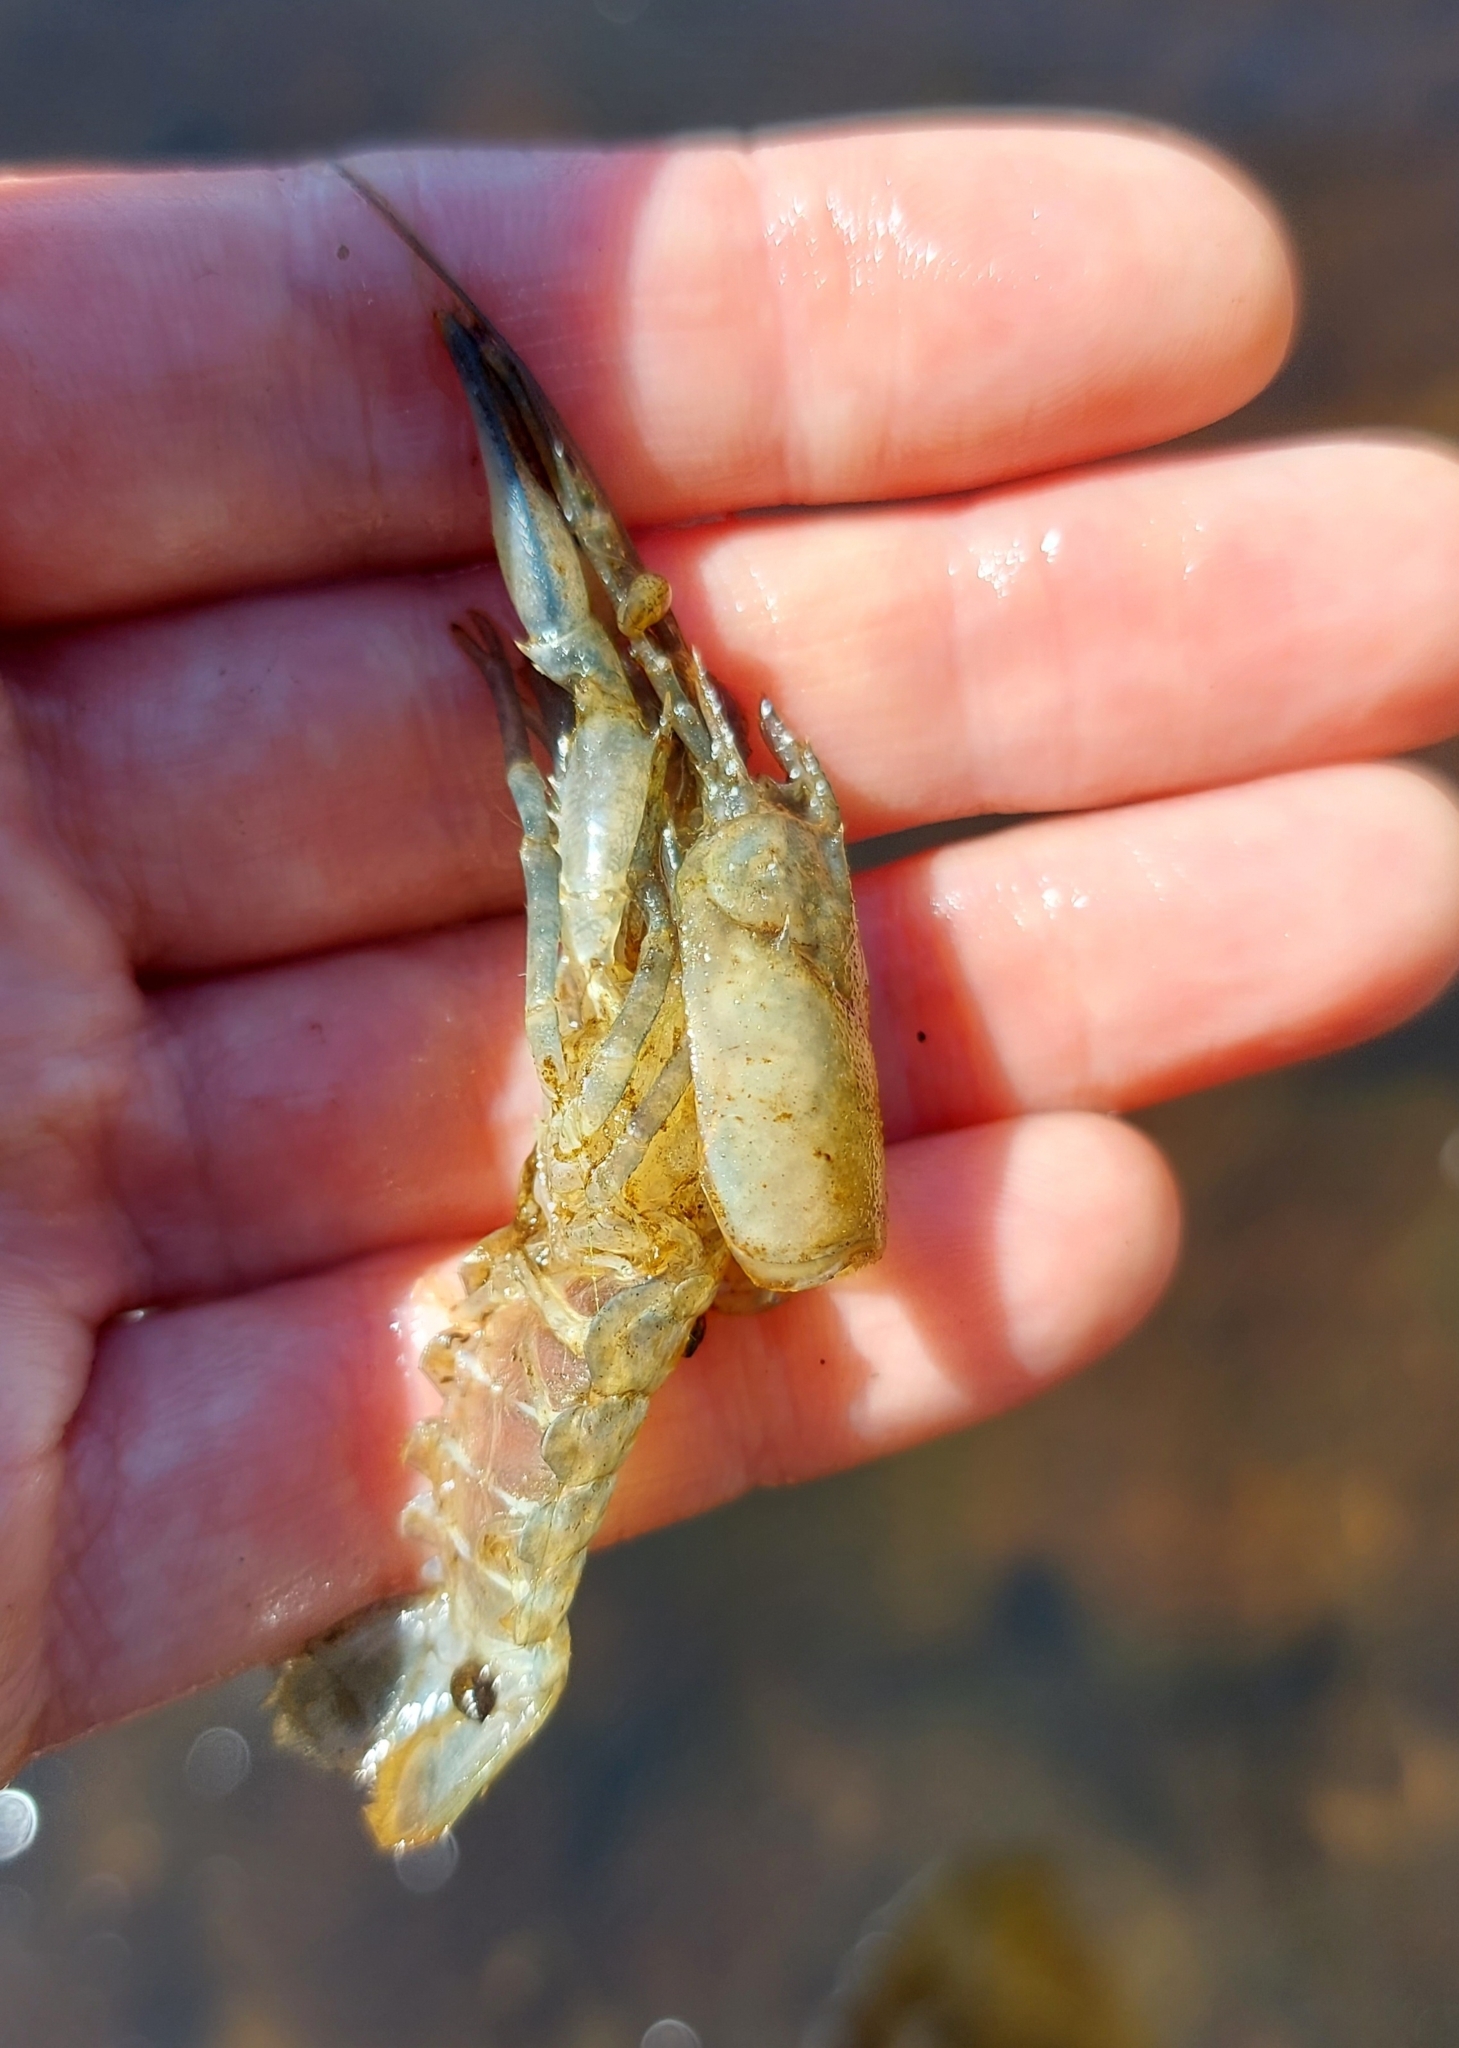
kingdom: Animalia
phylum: Arthropoda
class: Malacostraca
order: Decapoda
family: Cambaridae
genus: Faxonius
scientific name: Faxonius limosus
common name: American crayfish
